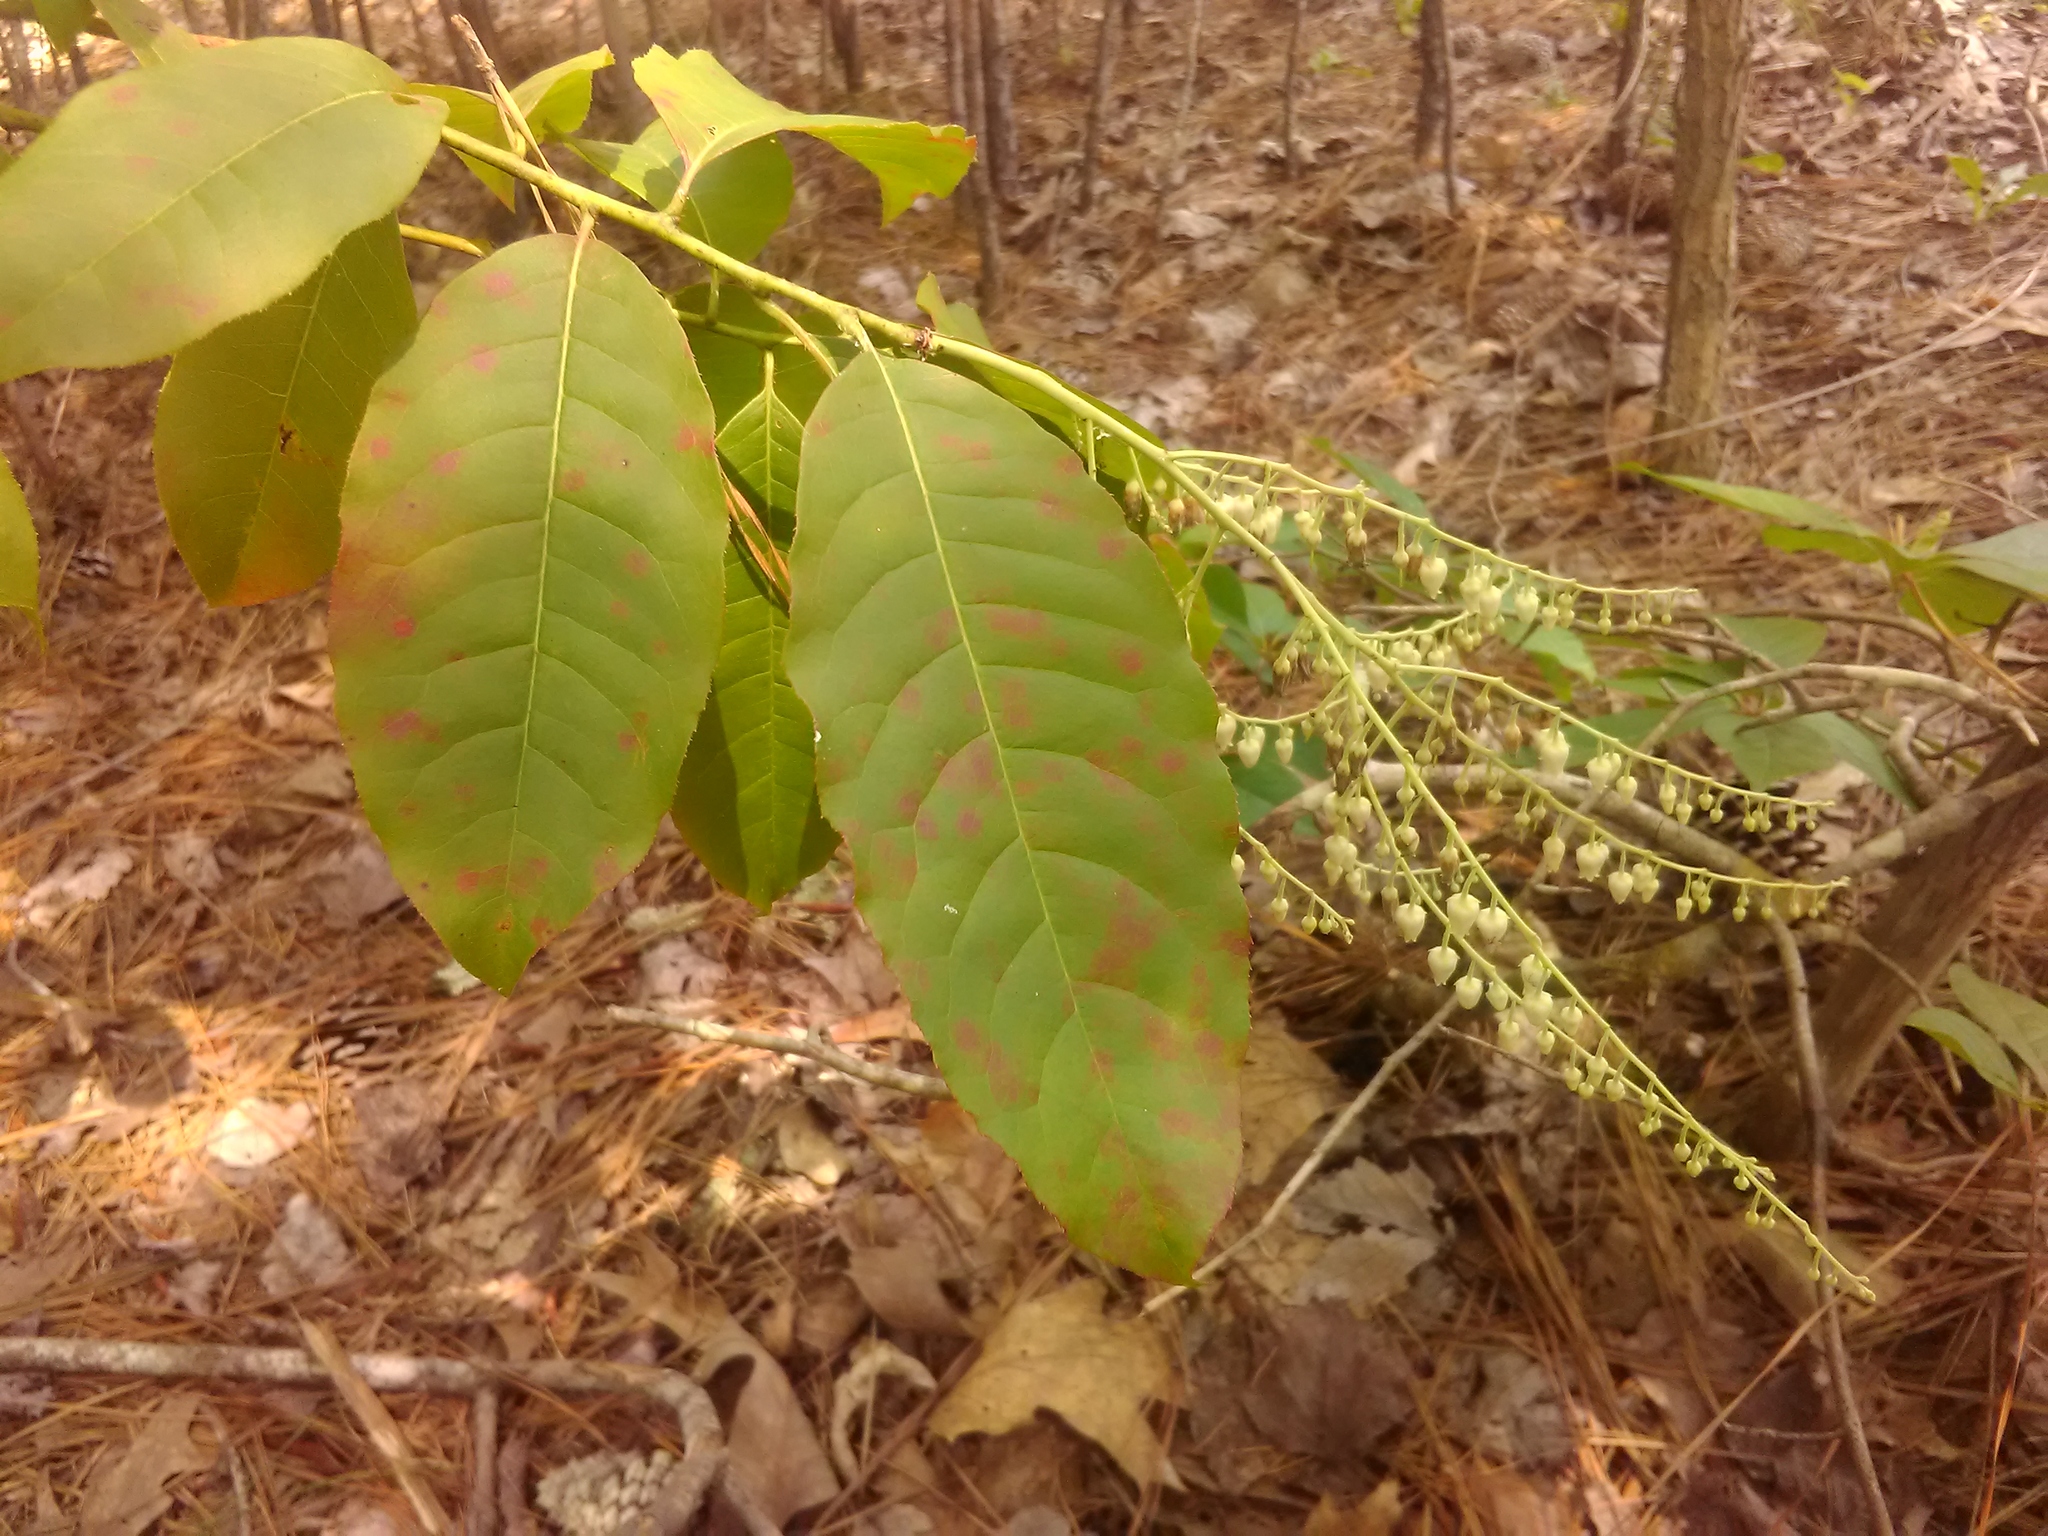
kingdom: Plantae
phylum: Tracheophyta
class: Magnoliopsida
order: Ericales
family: Ericaceae
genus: Oxydendrum
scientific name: Oxydendrum arboreum
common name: Sourwood
